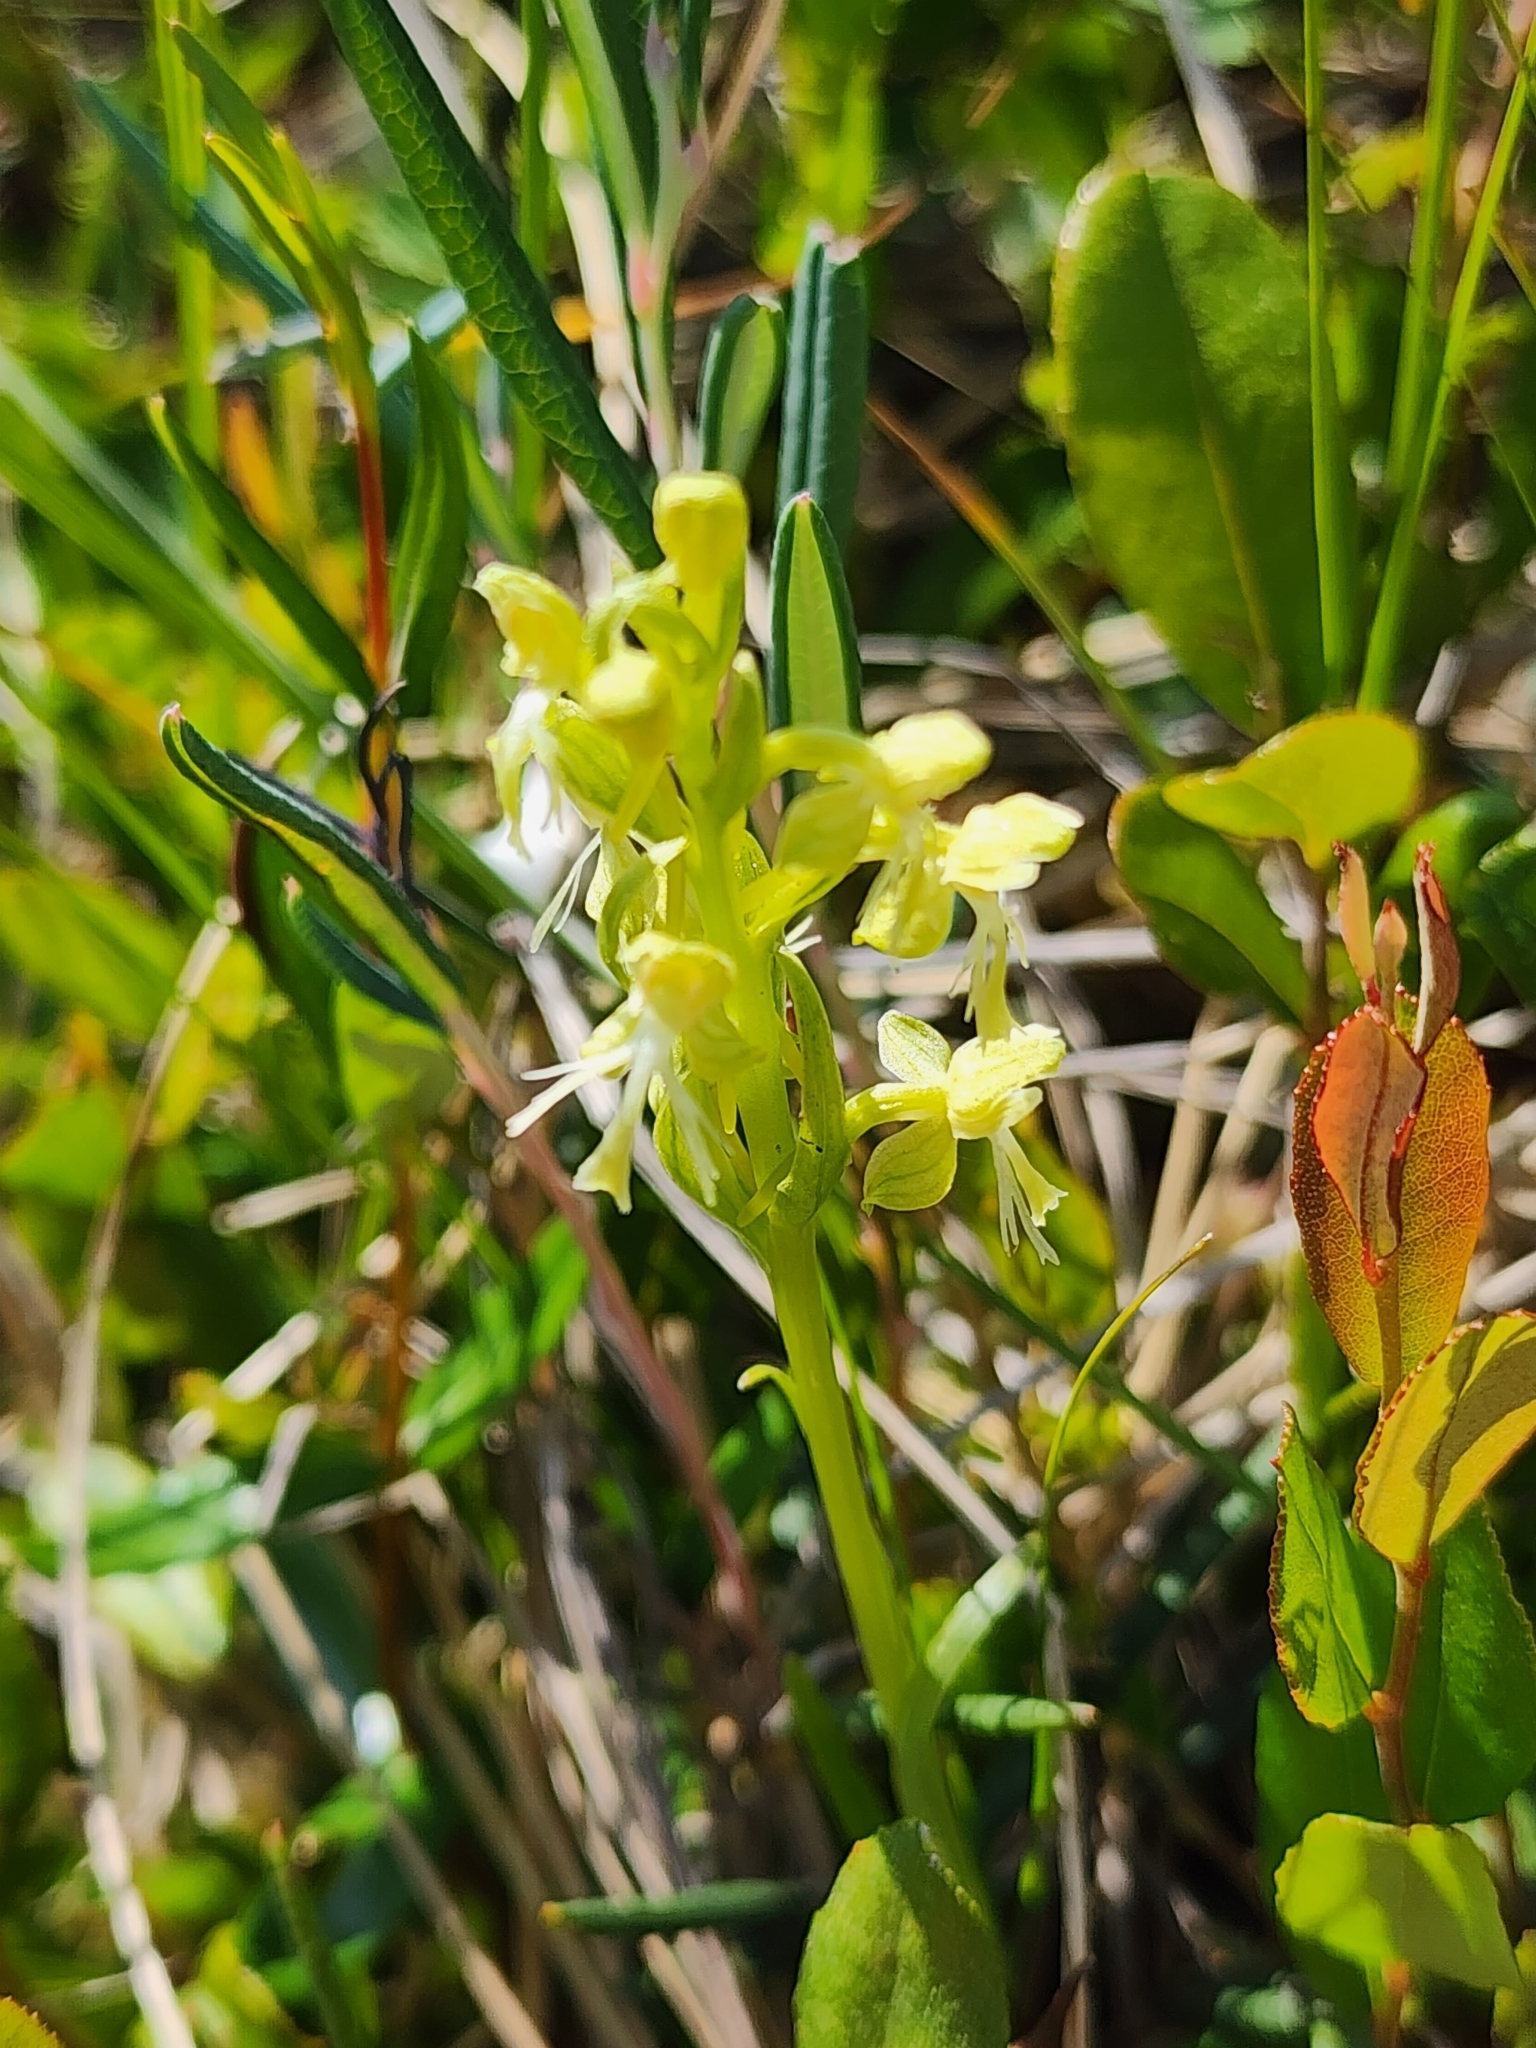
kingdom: Plantae
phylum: Tracheophyta
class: Liliopsida
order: Asparagales
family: Orchidaceae
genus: Platanthera
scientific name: Platanthera lacera
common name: Green fringed orchid
